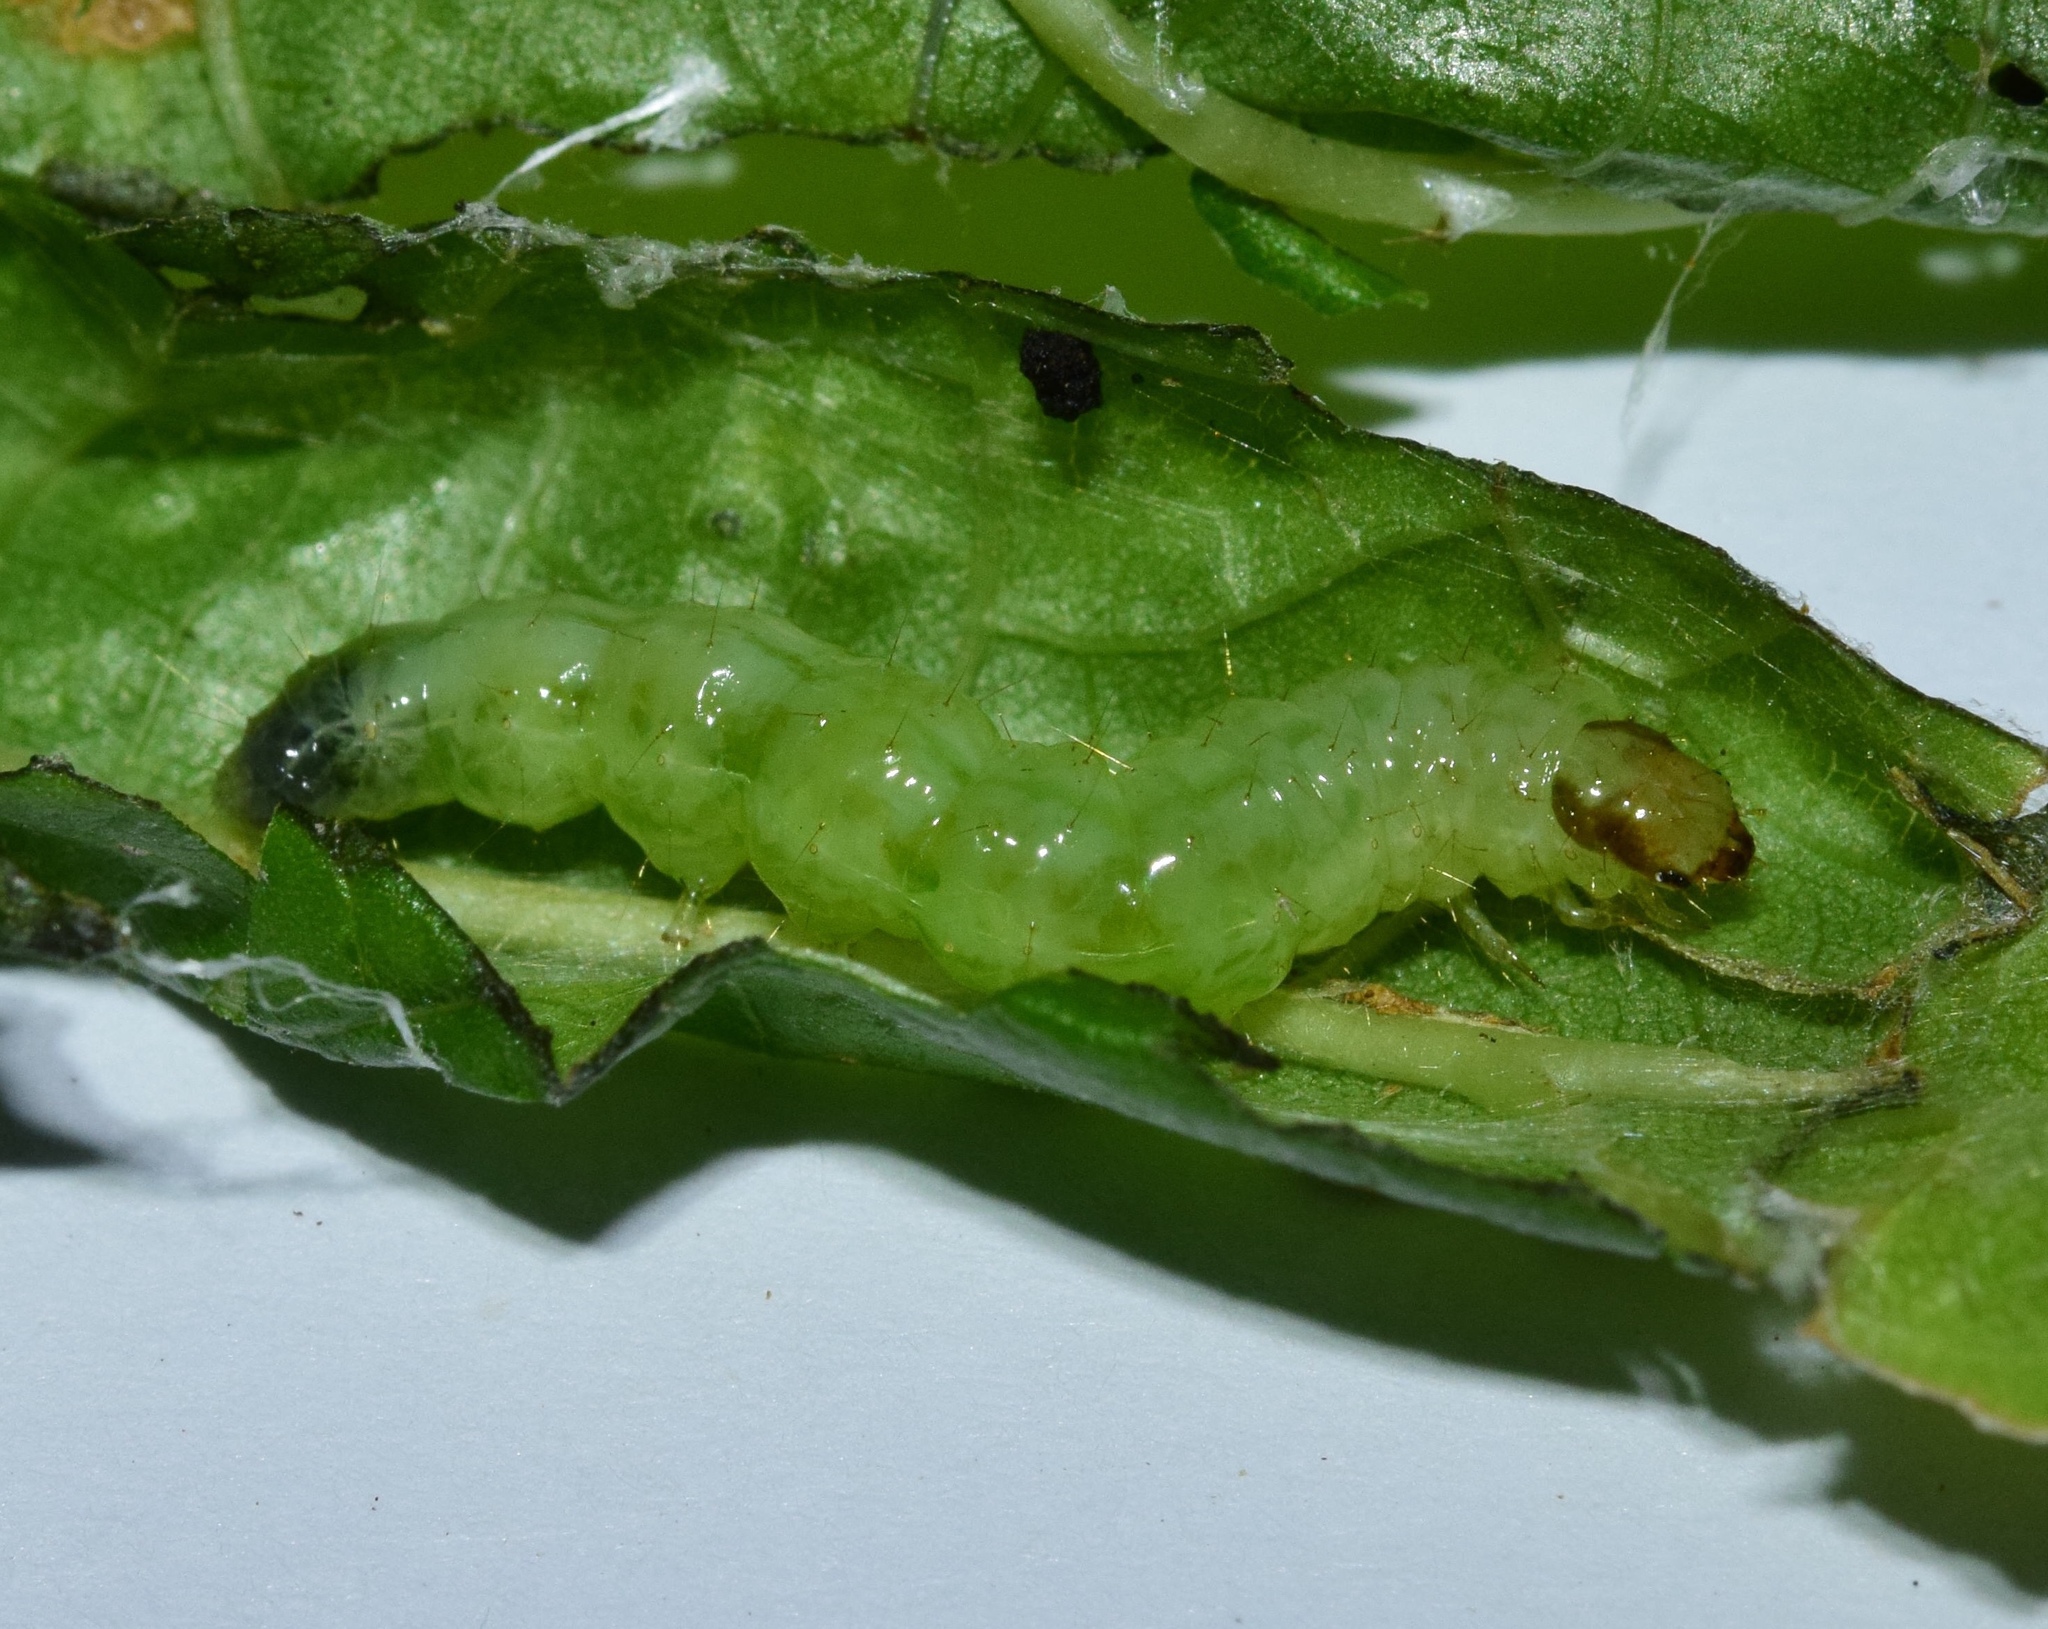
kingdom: Animalia
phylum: Arthropoda
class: Insecta
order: Lepidoptera
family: Crambidae
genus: Herpetogramma
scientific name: Herpetogramma phaeopteralis
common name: Dusky herpetogramma moth
